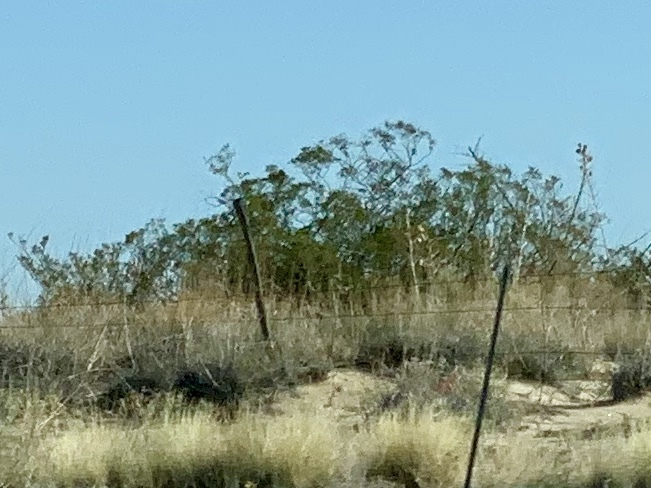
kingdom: Plantae
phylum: Tracheophyta
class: Magnoliopsida
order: Zygophyllales
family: Zygophyllaceae
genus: Larrea
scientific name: Larrea tridentata
